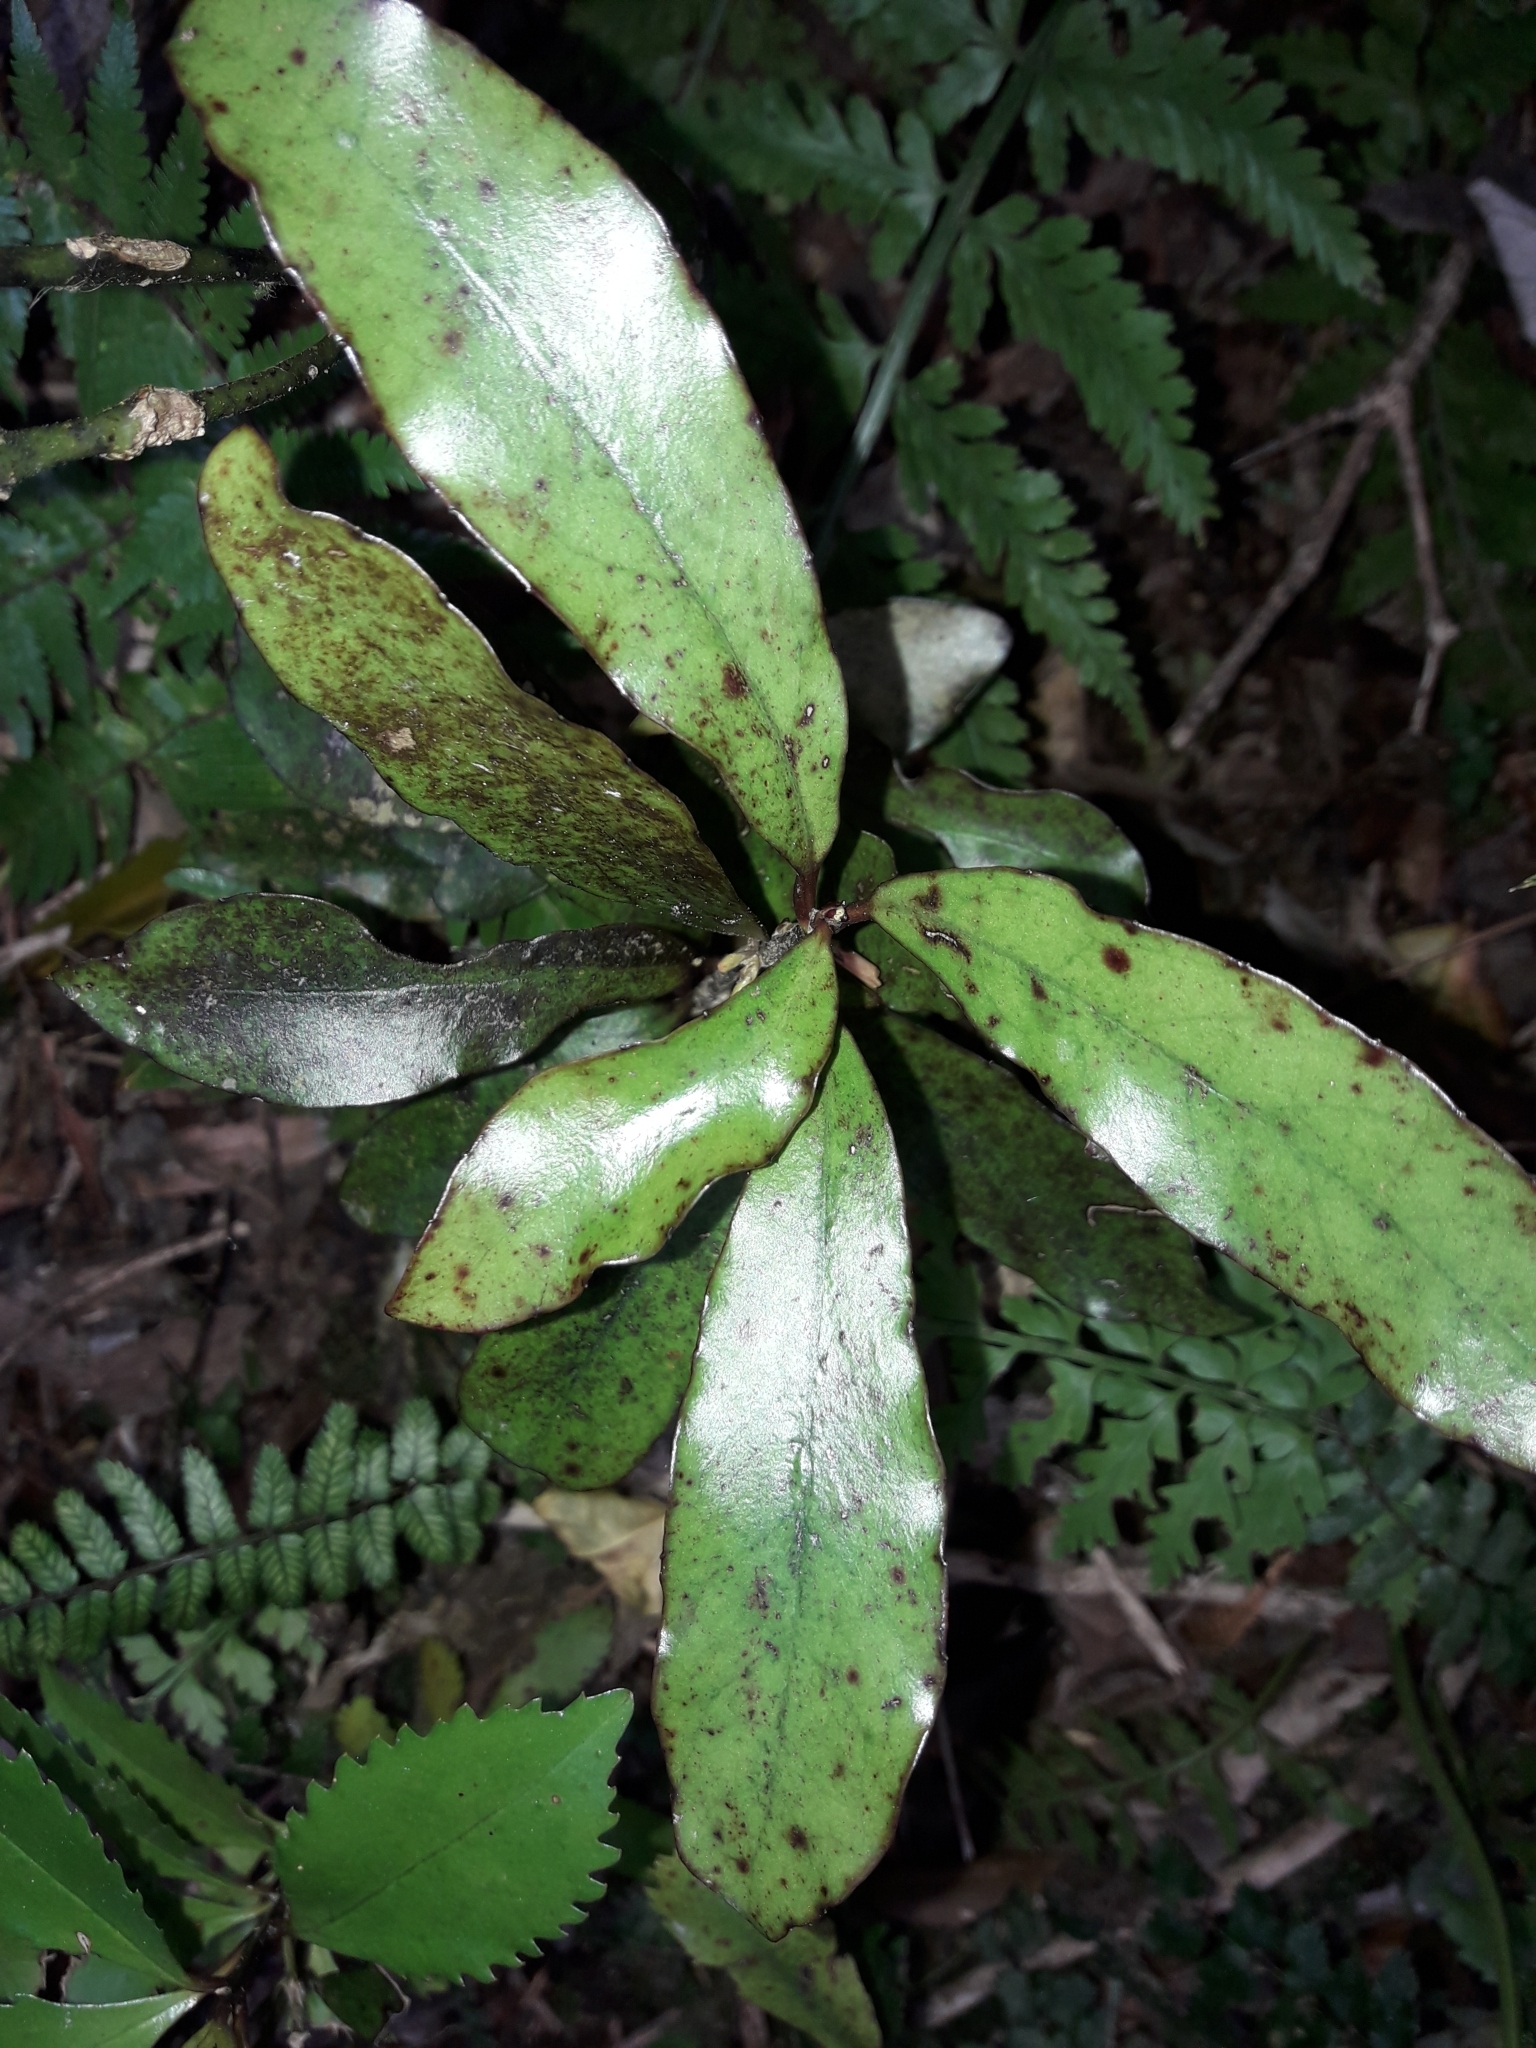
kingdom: Plantae
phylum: Tracheophyta
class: Magnoliopsida
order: Asterales
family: Alseuosmiaceae
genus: Alseuosmia
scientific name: Alseuosmia pusilla
